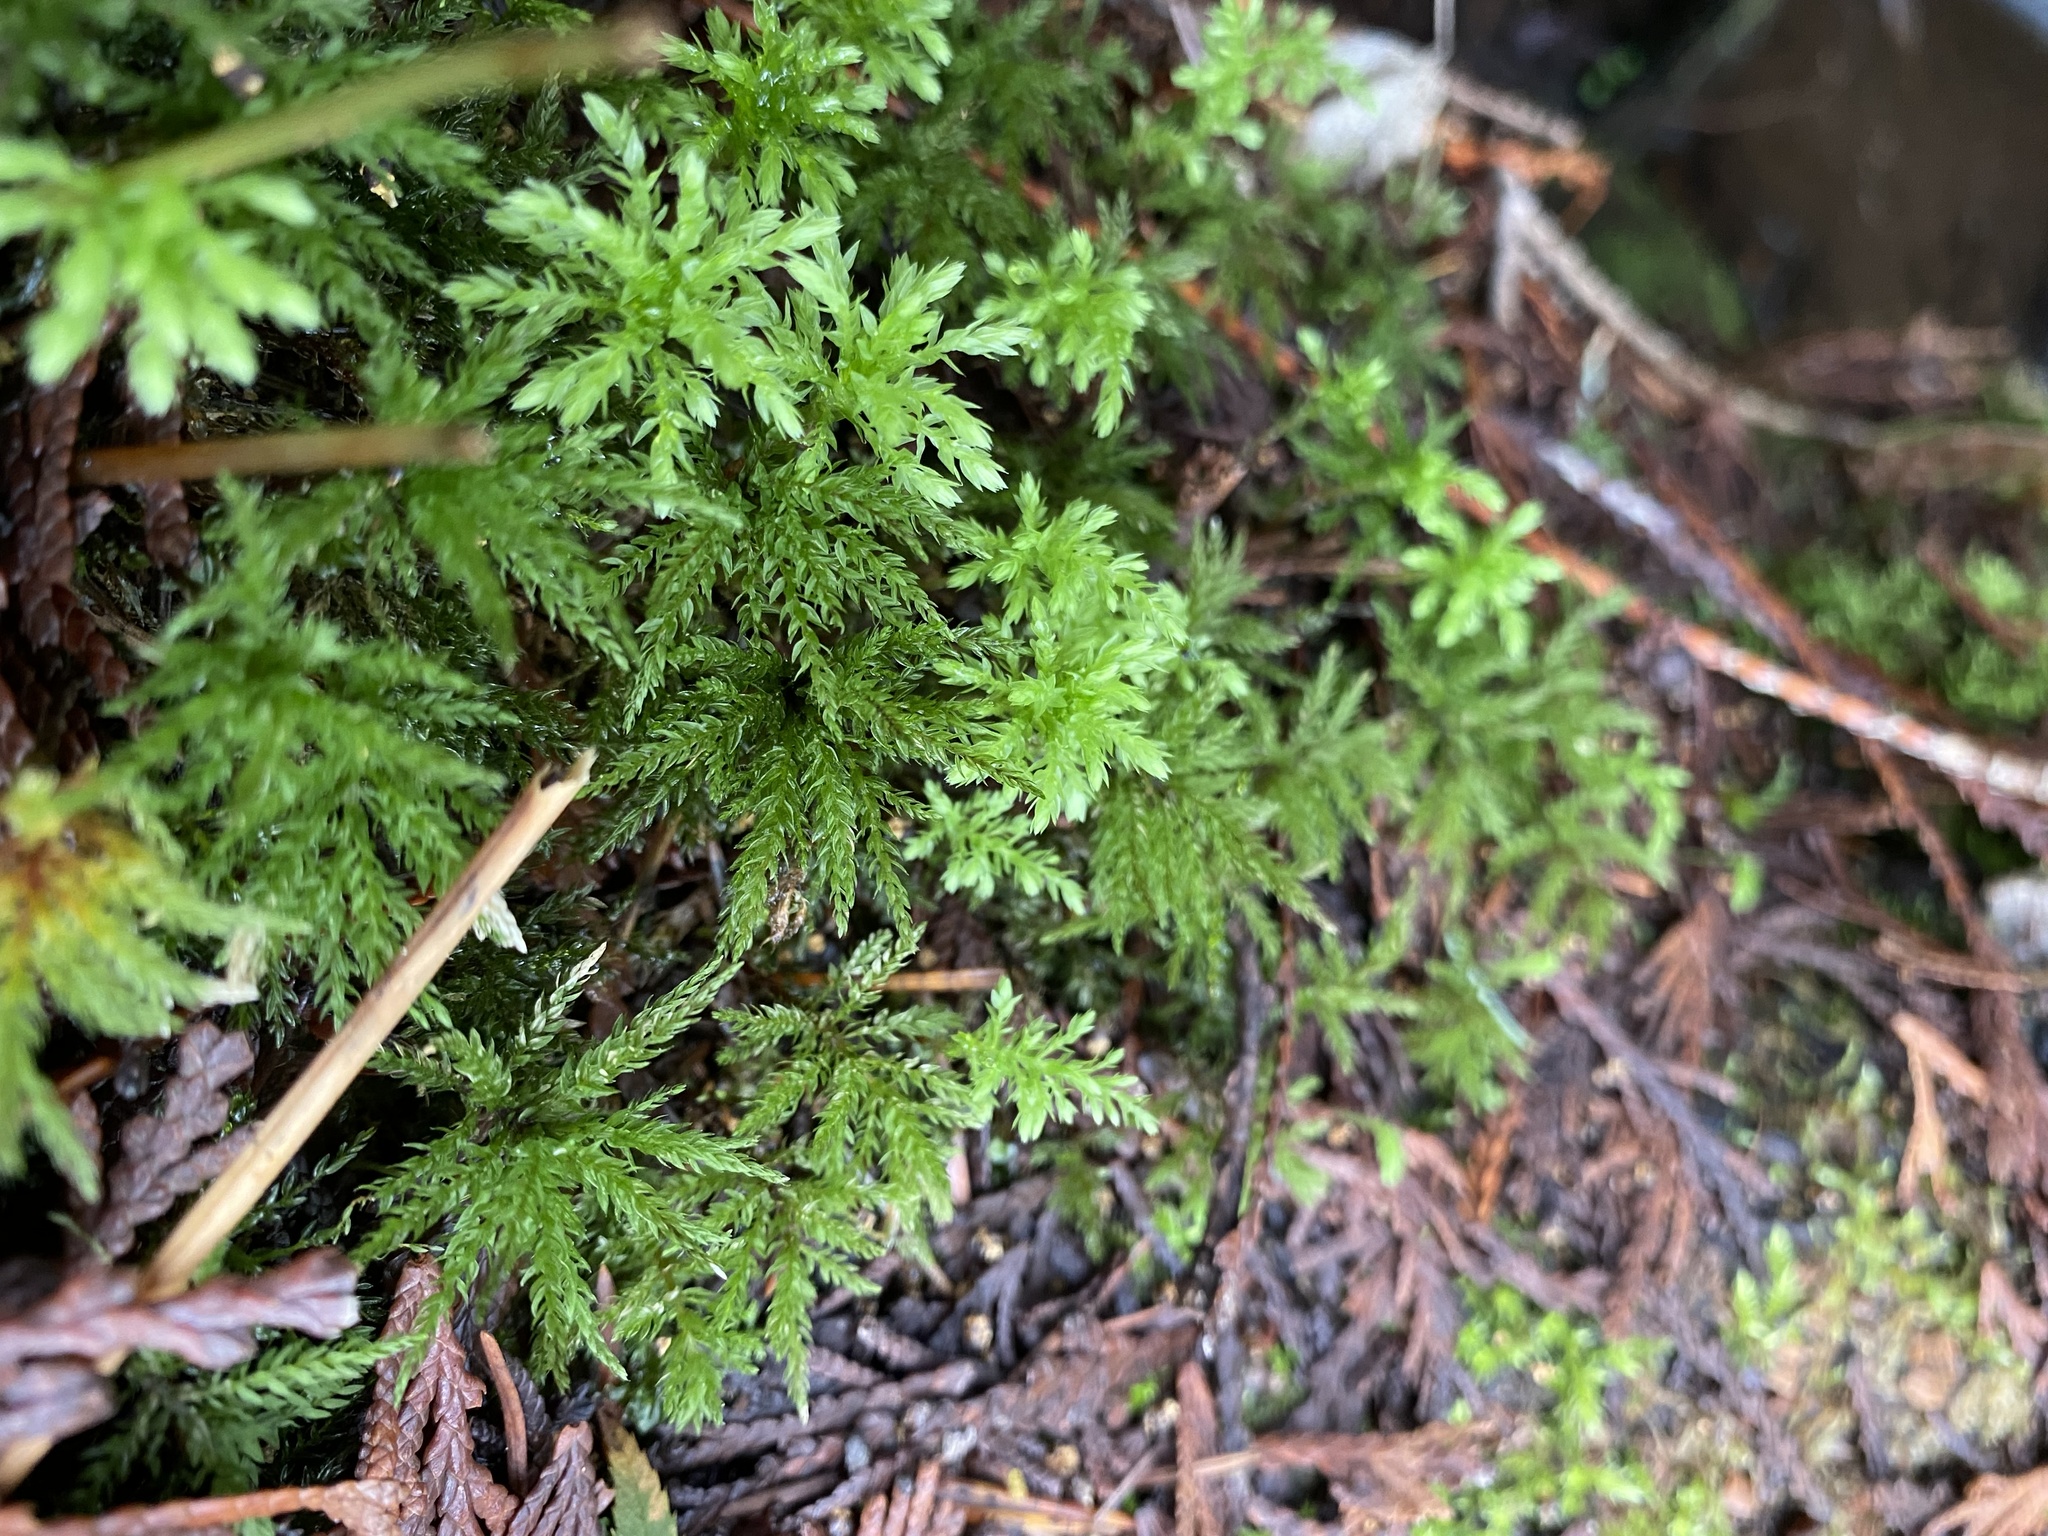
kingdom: Plantae
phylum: Bryophyta
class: Bryopsida
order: Bryales
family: Mniaceae
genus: Leucolepis
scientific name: Leucolepis acanthoneura
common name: Leucolepis umbrella moss
